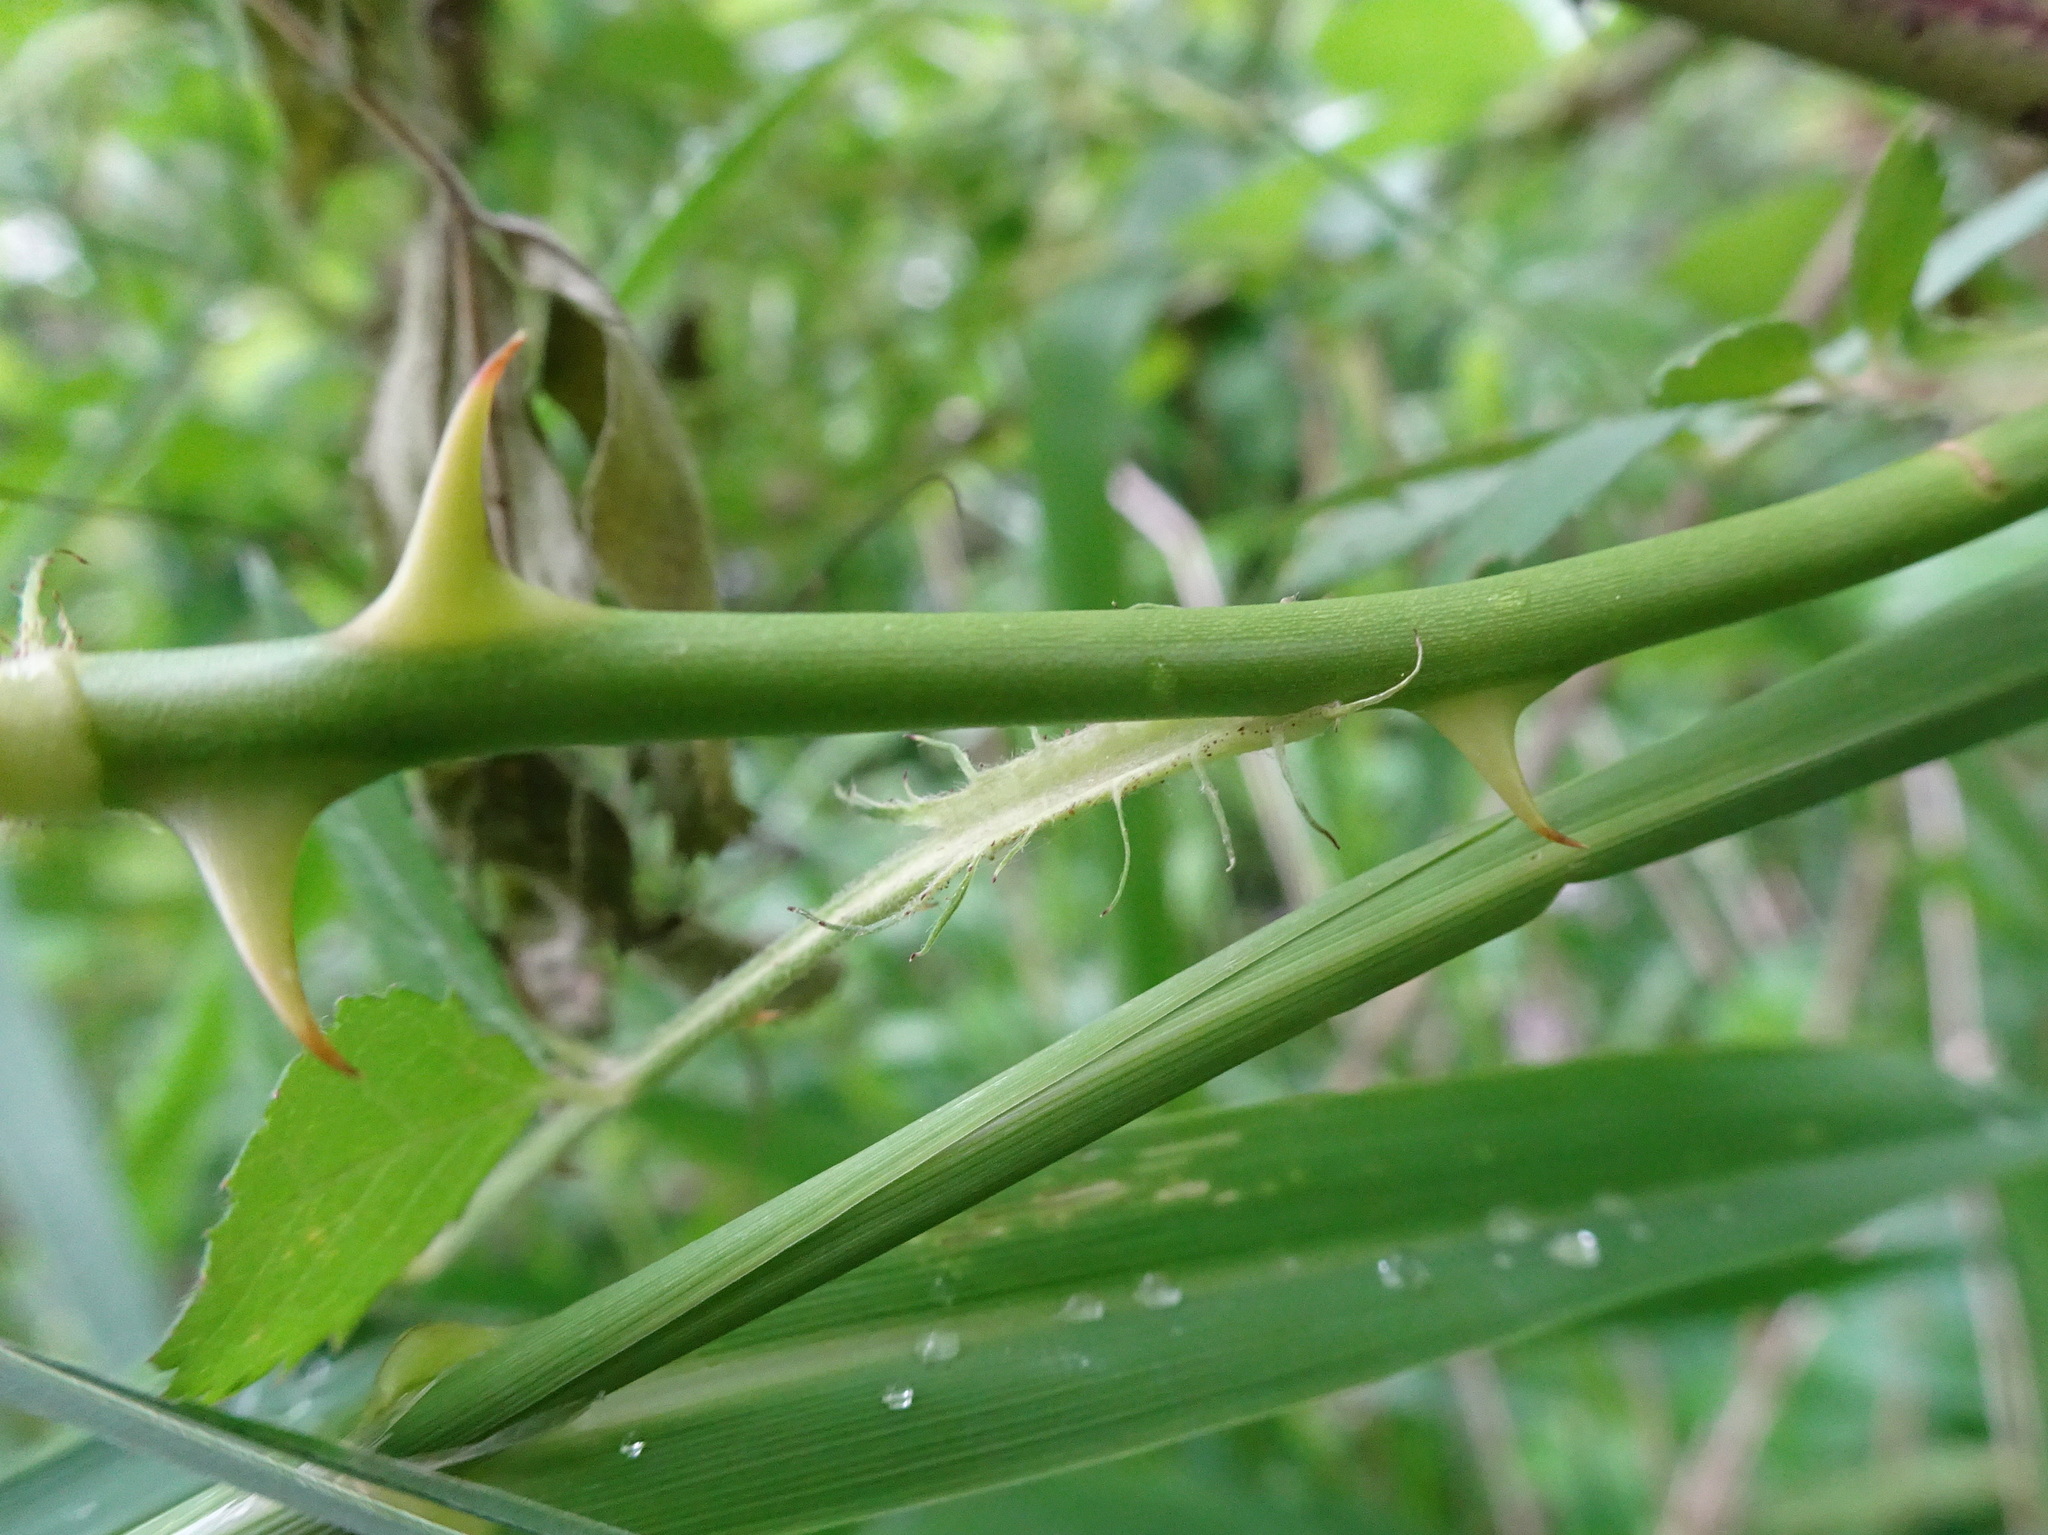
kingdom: Plantae
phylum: Tracheophyta
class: Magnoliopsida
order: Rosales
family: Rosaceae
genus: Rosa
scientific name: Rosa multiflora
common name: Multiflora rose
